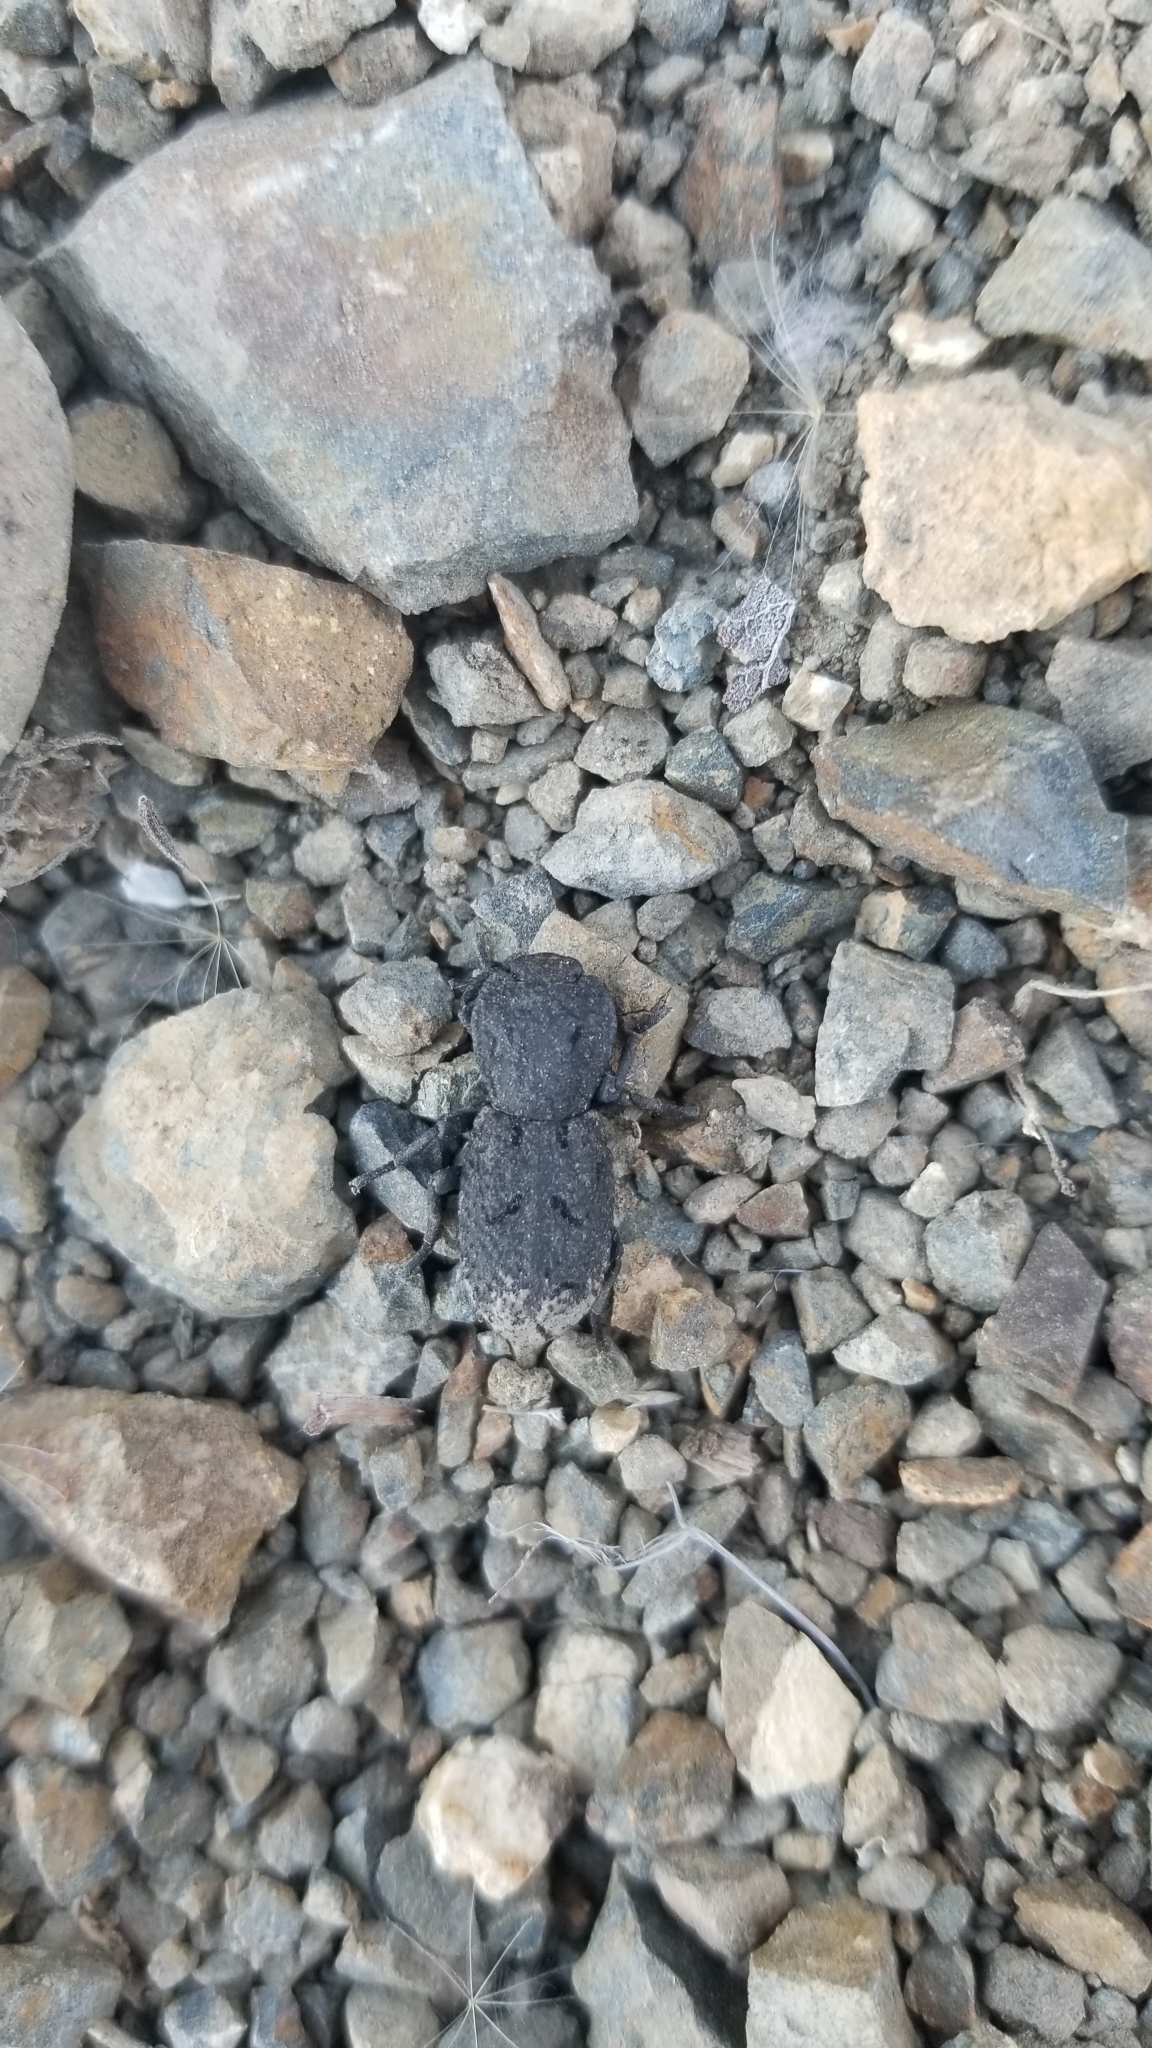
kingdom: Animalia
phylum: Arthropoda
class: Insecta
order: Coleoptera
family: Zopheridae
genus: Phloeodes
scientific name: Phloeodes diabolicus
